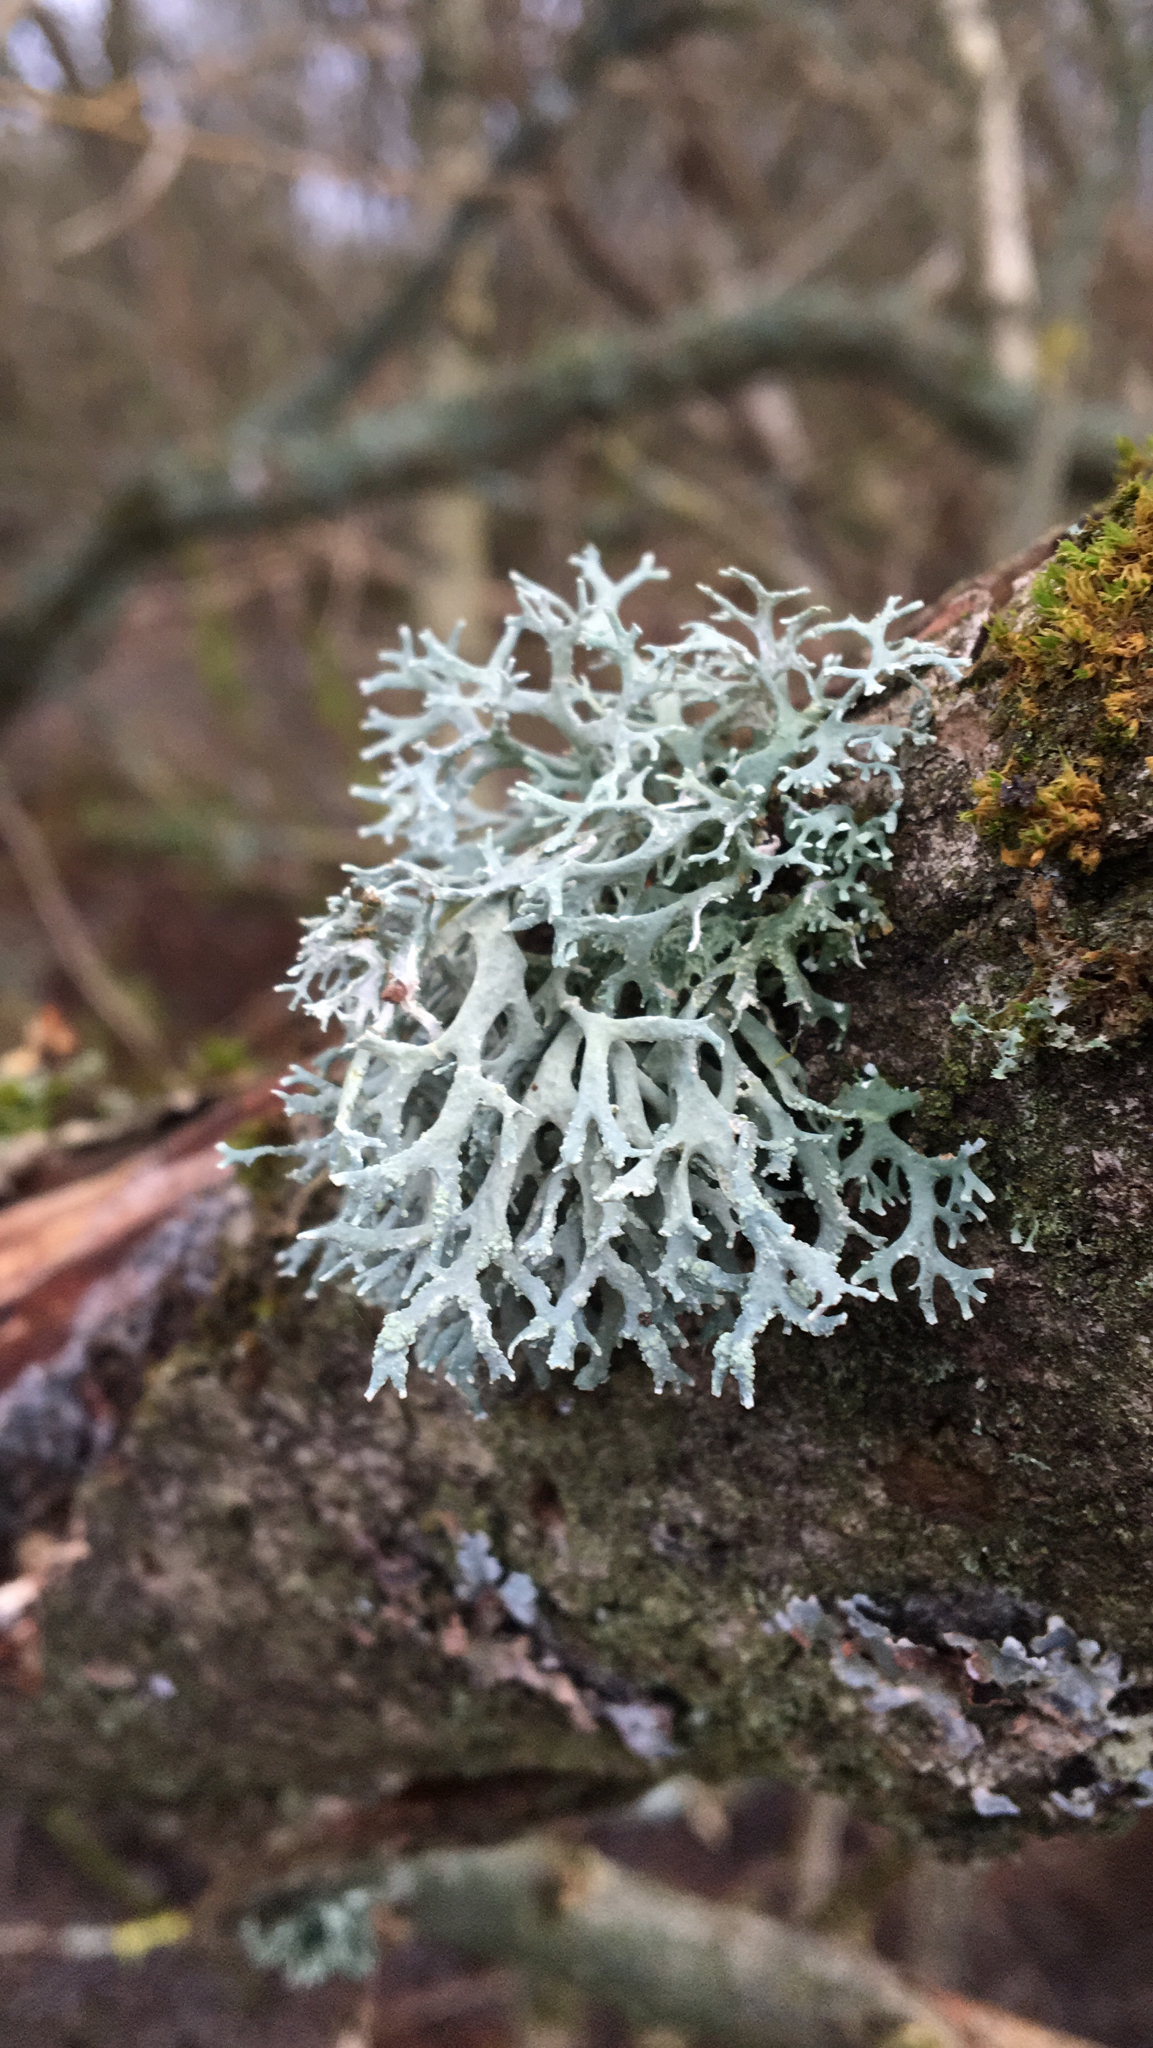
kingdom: Fungi
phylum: Ascomycota
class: Lecanoromycetes
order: Lecanorales
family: Parmeliaceae
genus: Evernia
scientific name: Evernia prunastri
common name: Oak moss
